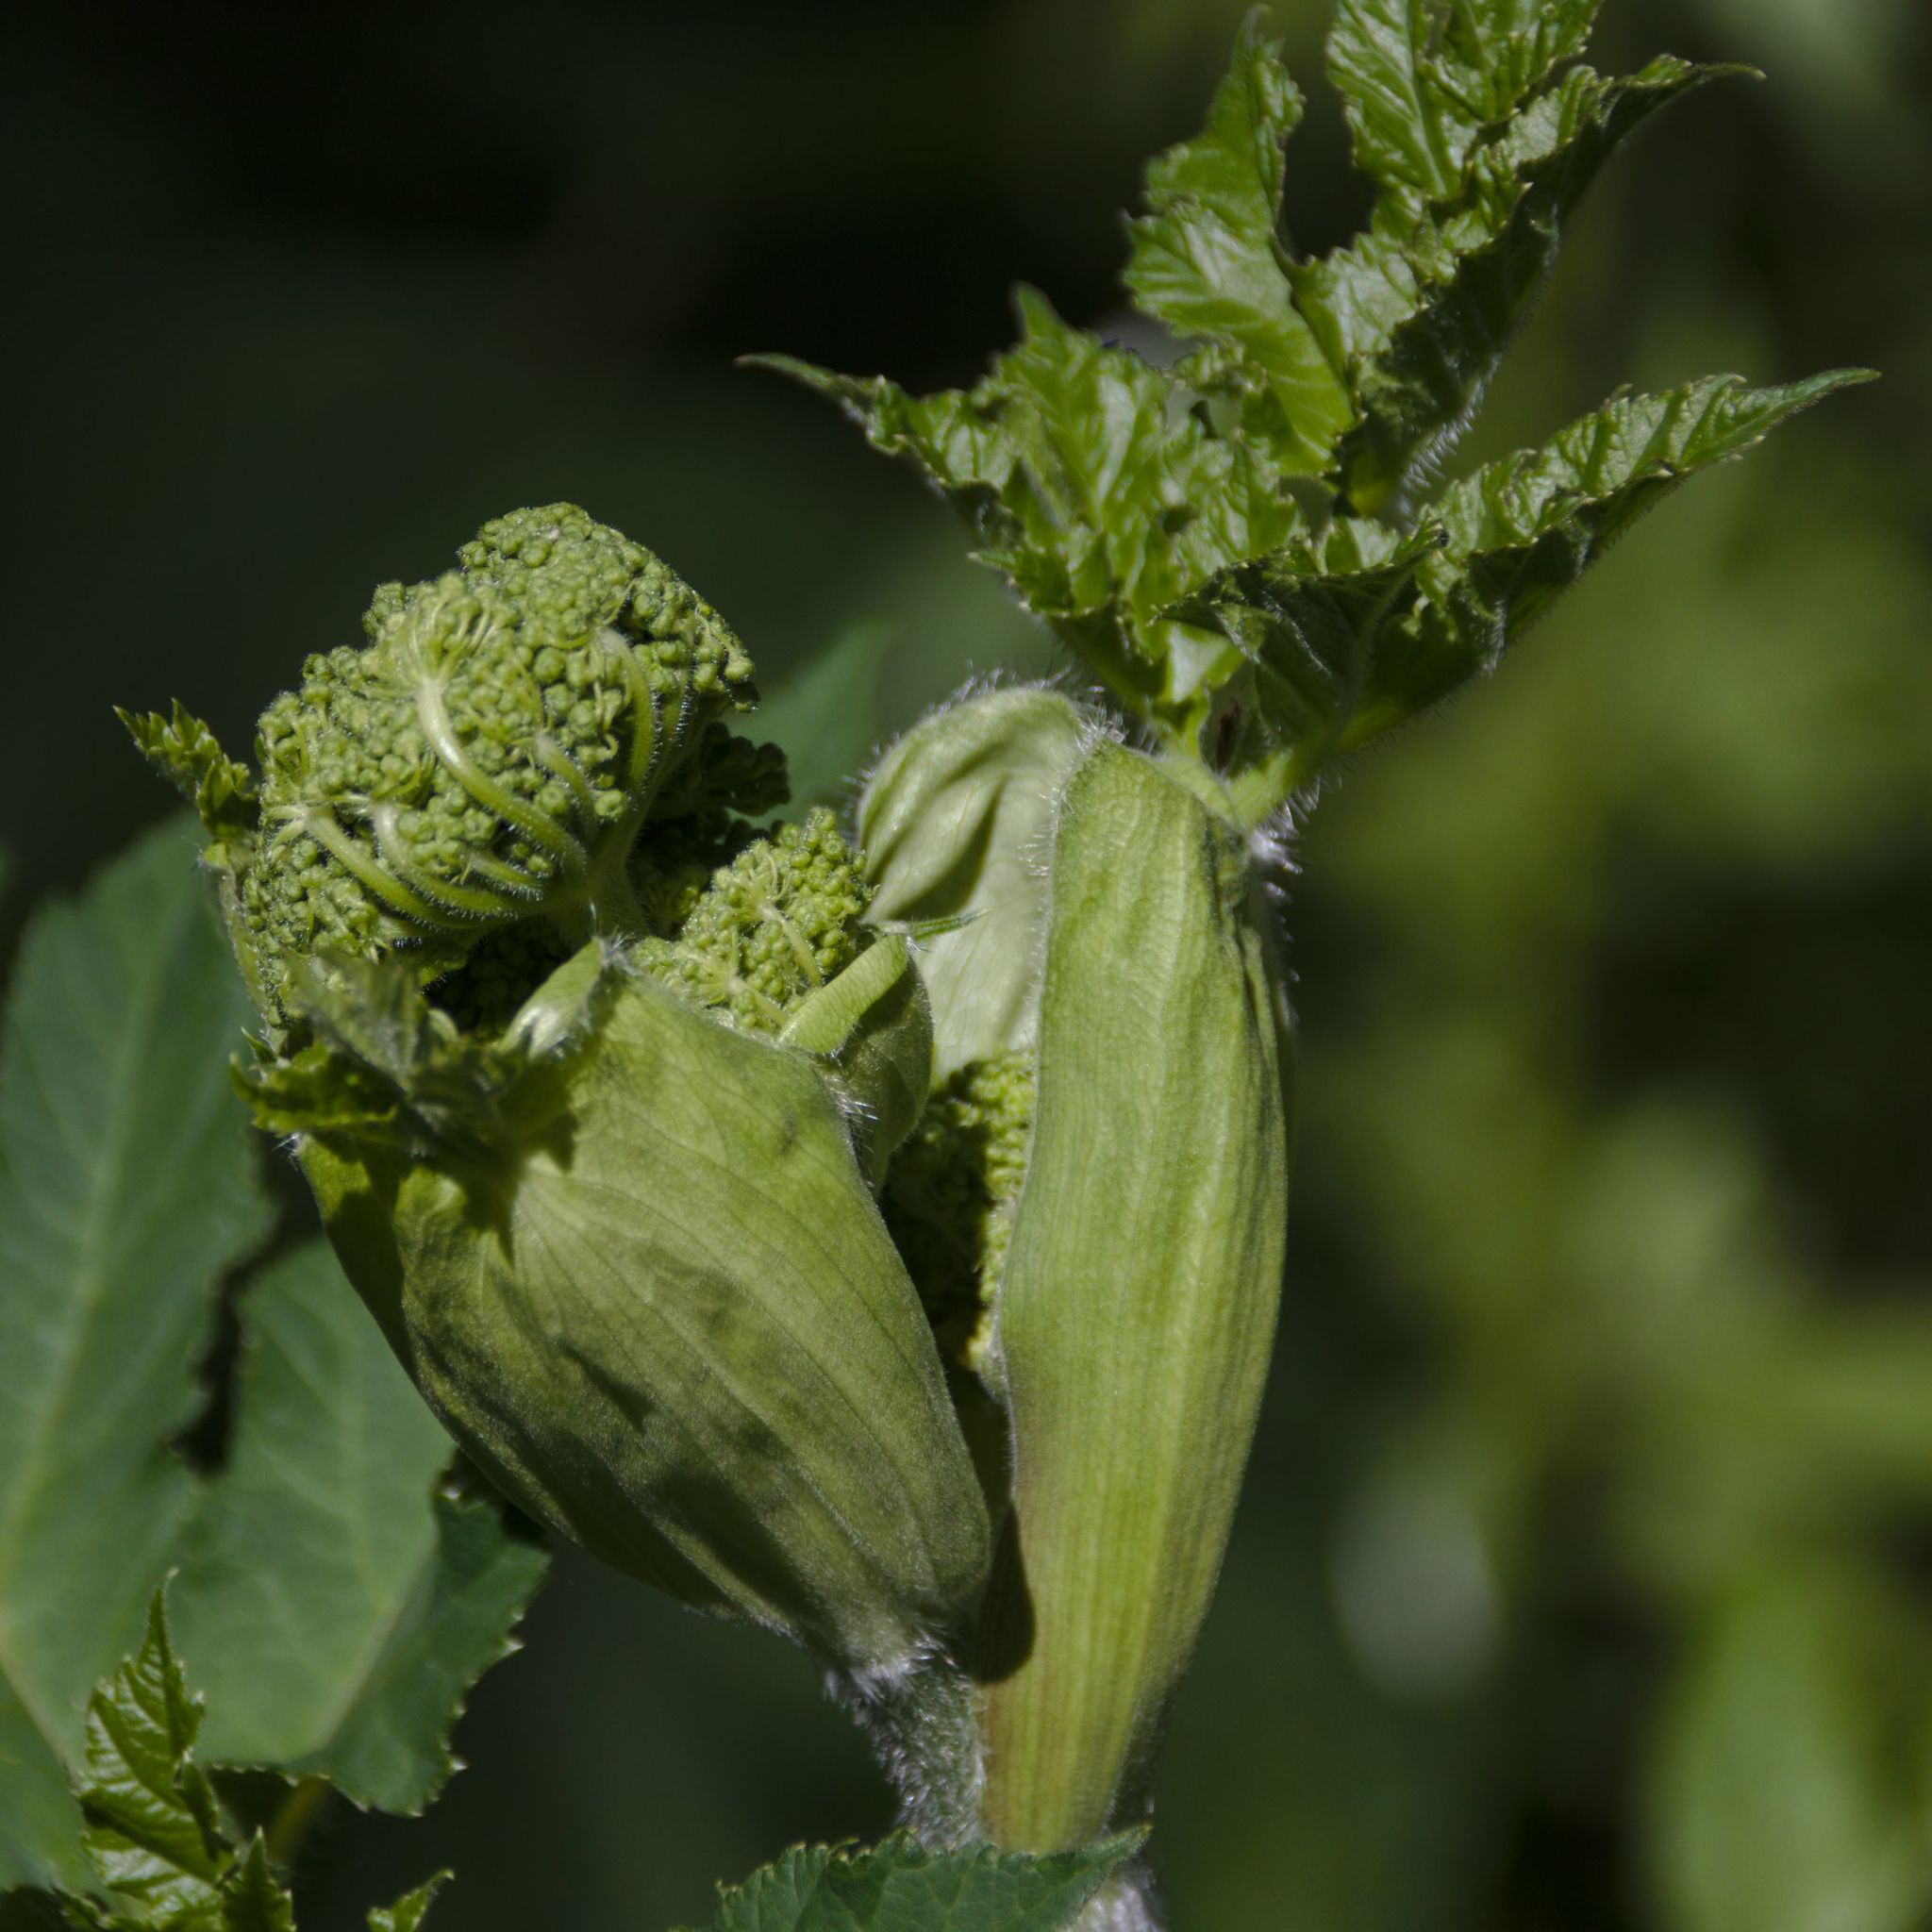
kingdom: Plantae
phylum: Tracheophyta
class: Magnoliopsida
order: Apiales
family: Apiaceae
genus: Heracleum
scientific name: Heracleum sphondylium
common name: Hogweed
